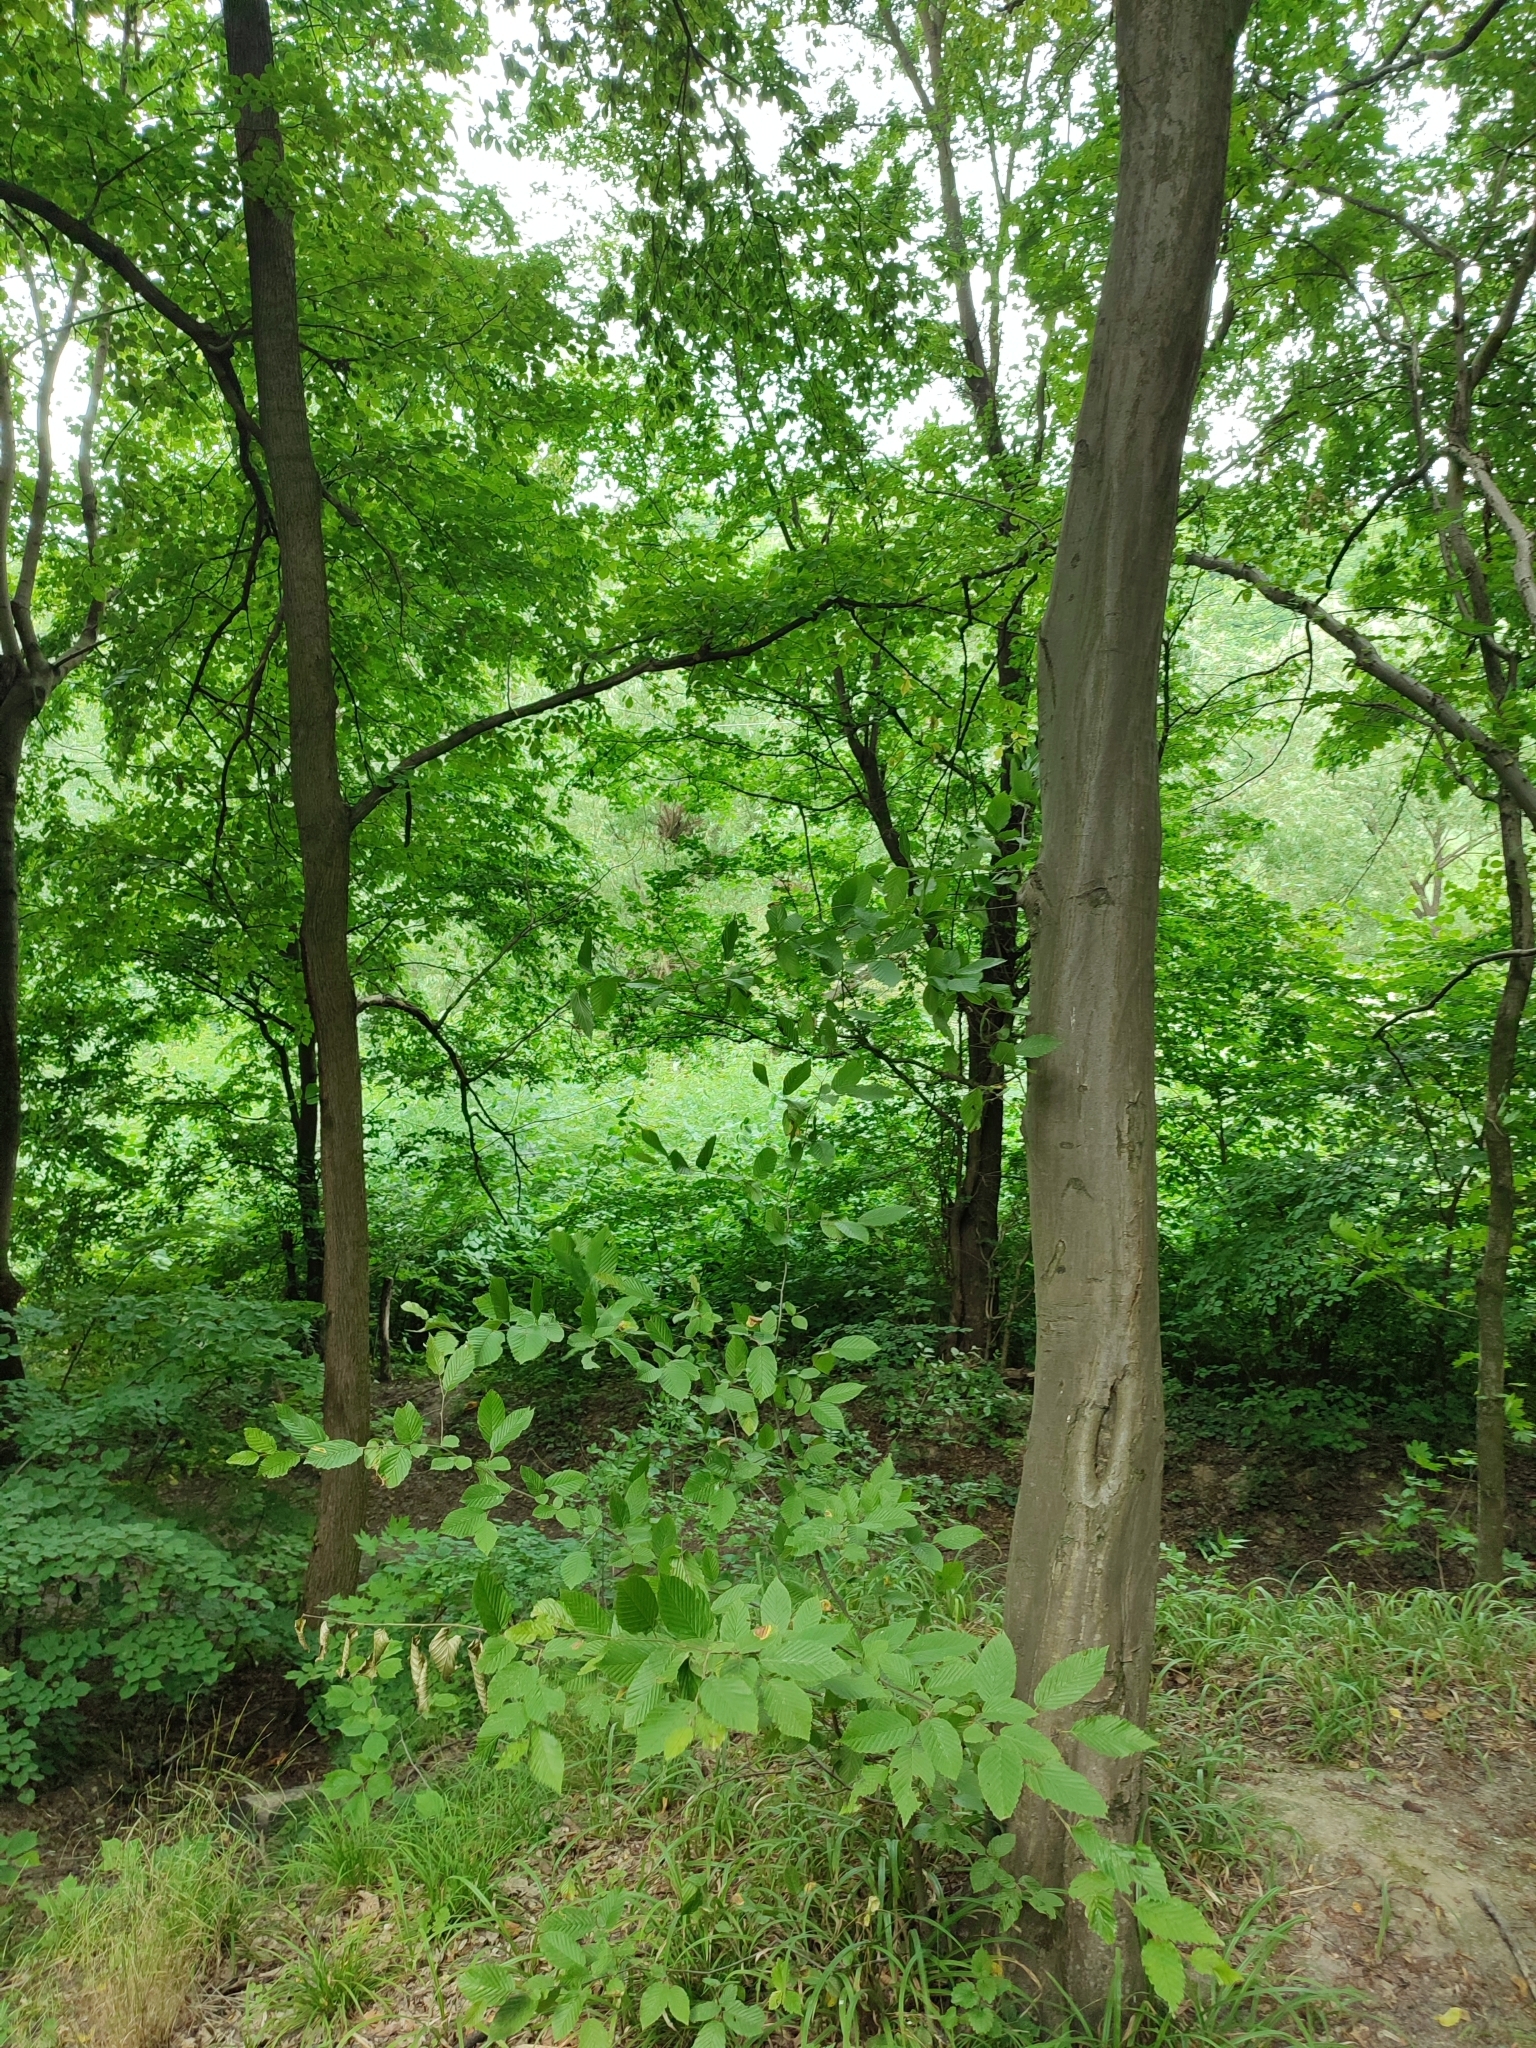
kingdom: Plantae
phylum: Tracheophyta
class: Magnoliopsida
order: Fagales
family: Betulaceae
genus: Carpinus
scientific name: Carpinus betulus
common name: Hornbeam
